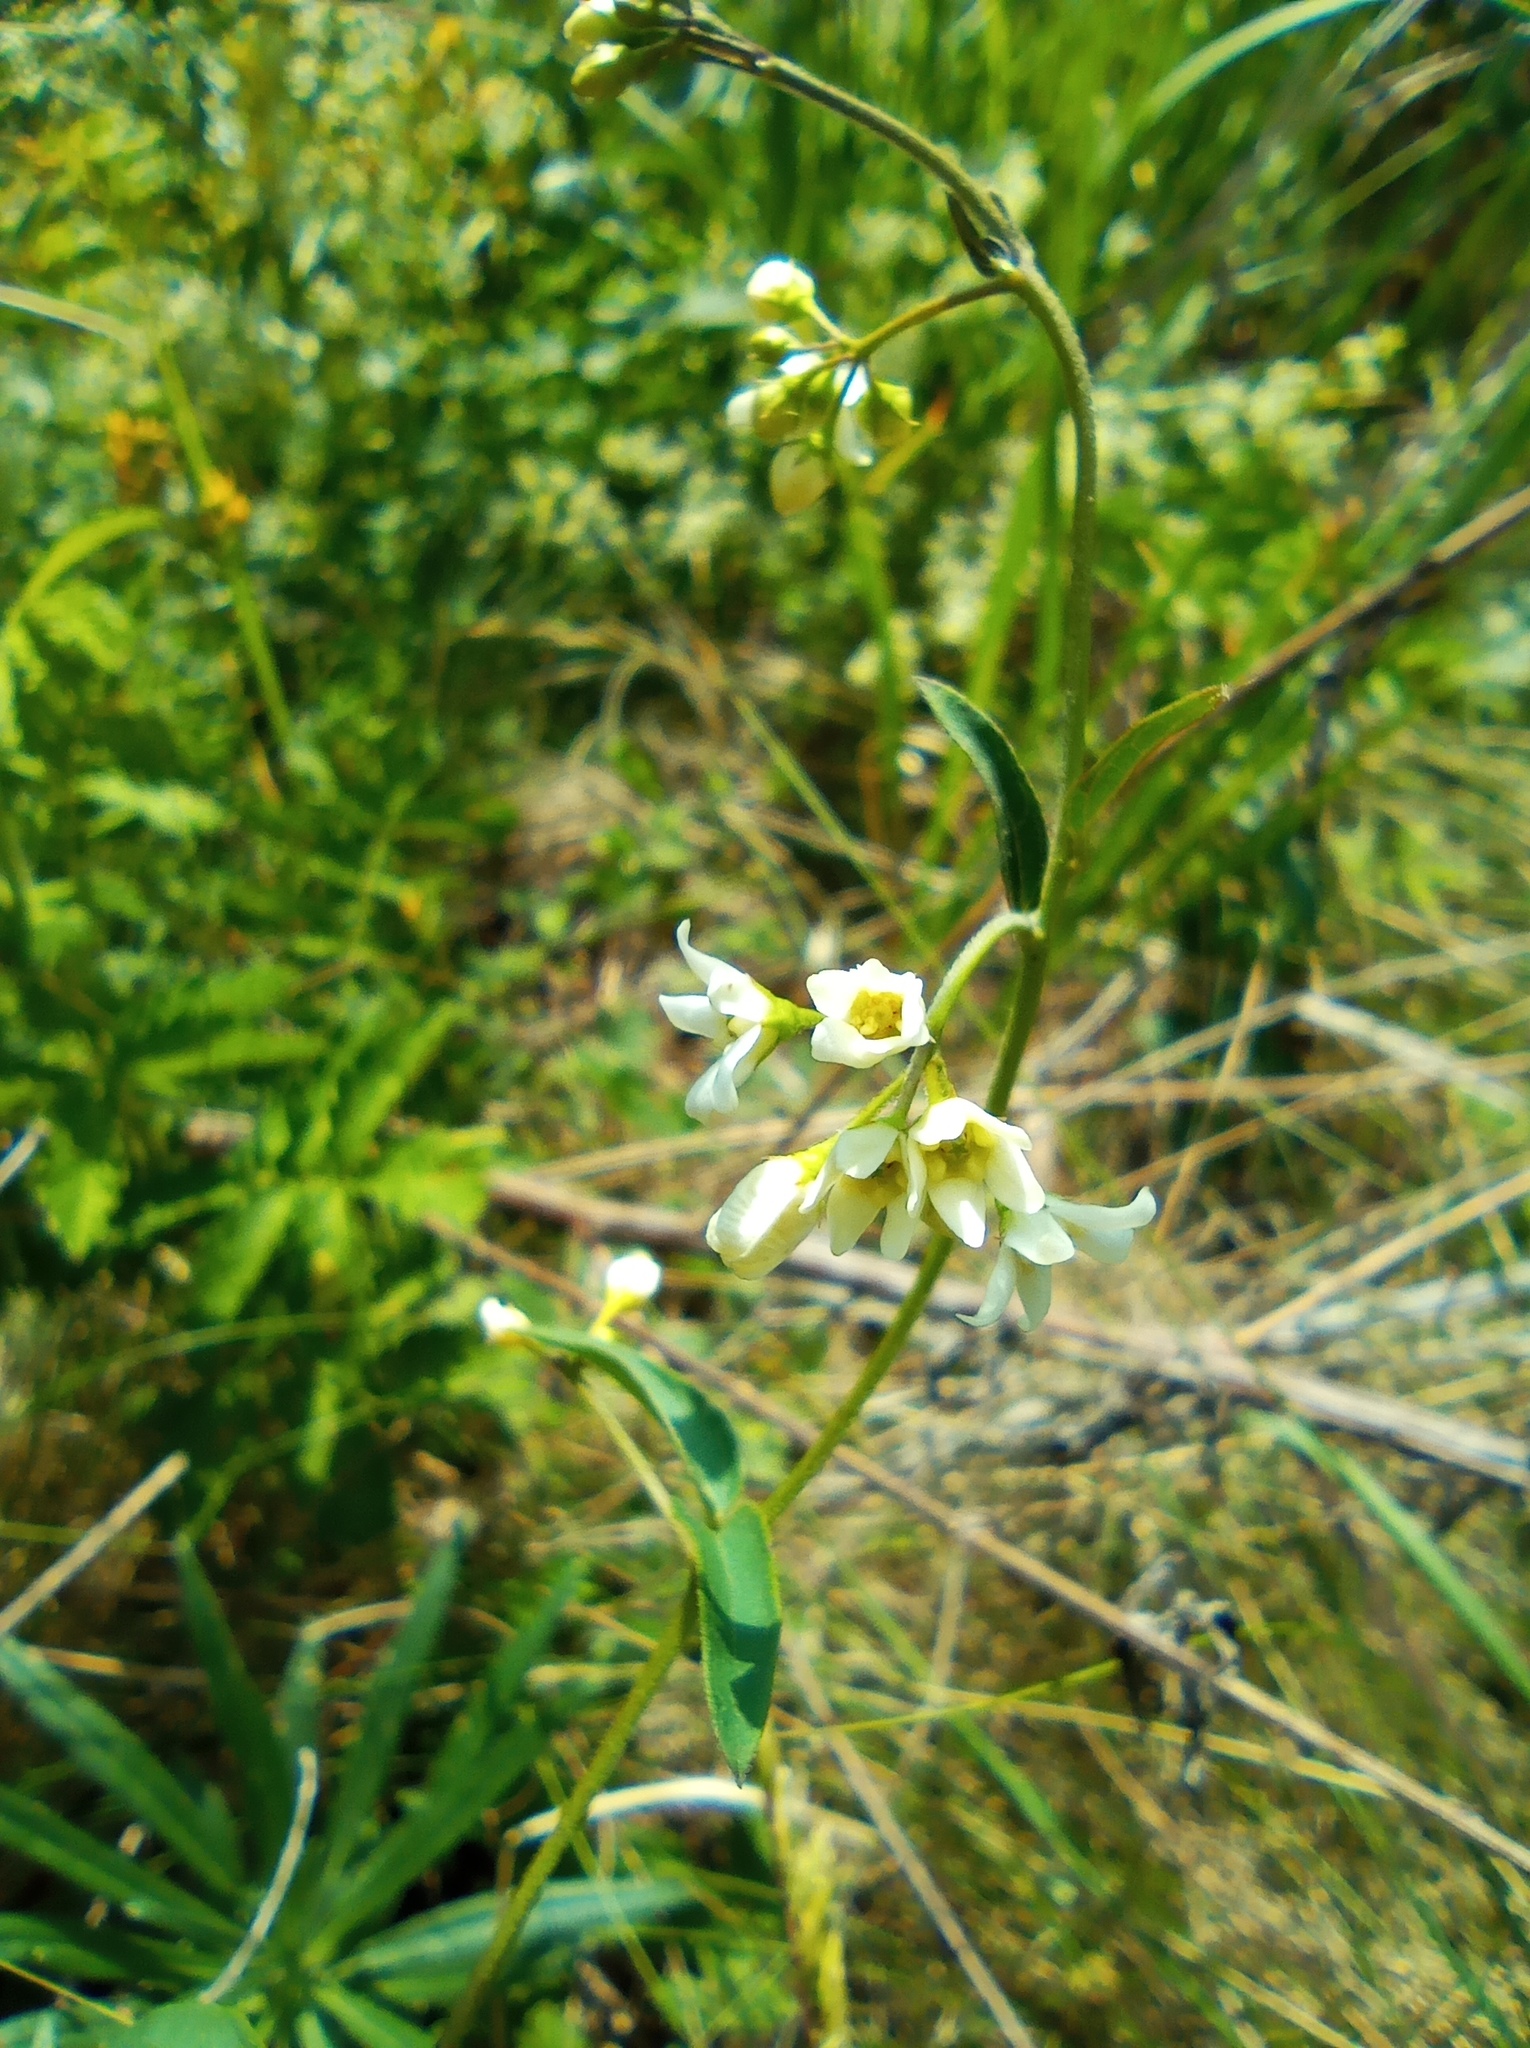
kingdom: Plantae
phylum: Tracheophyta
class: Magnoliopsida
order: Gentianales
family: Apocynaceae
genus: Vincetoxicum
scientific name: Vincetoxicum hirundinaria
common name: White swallowwort
